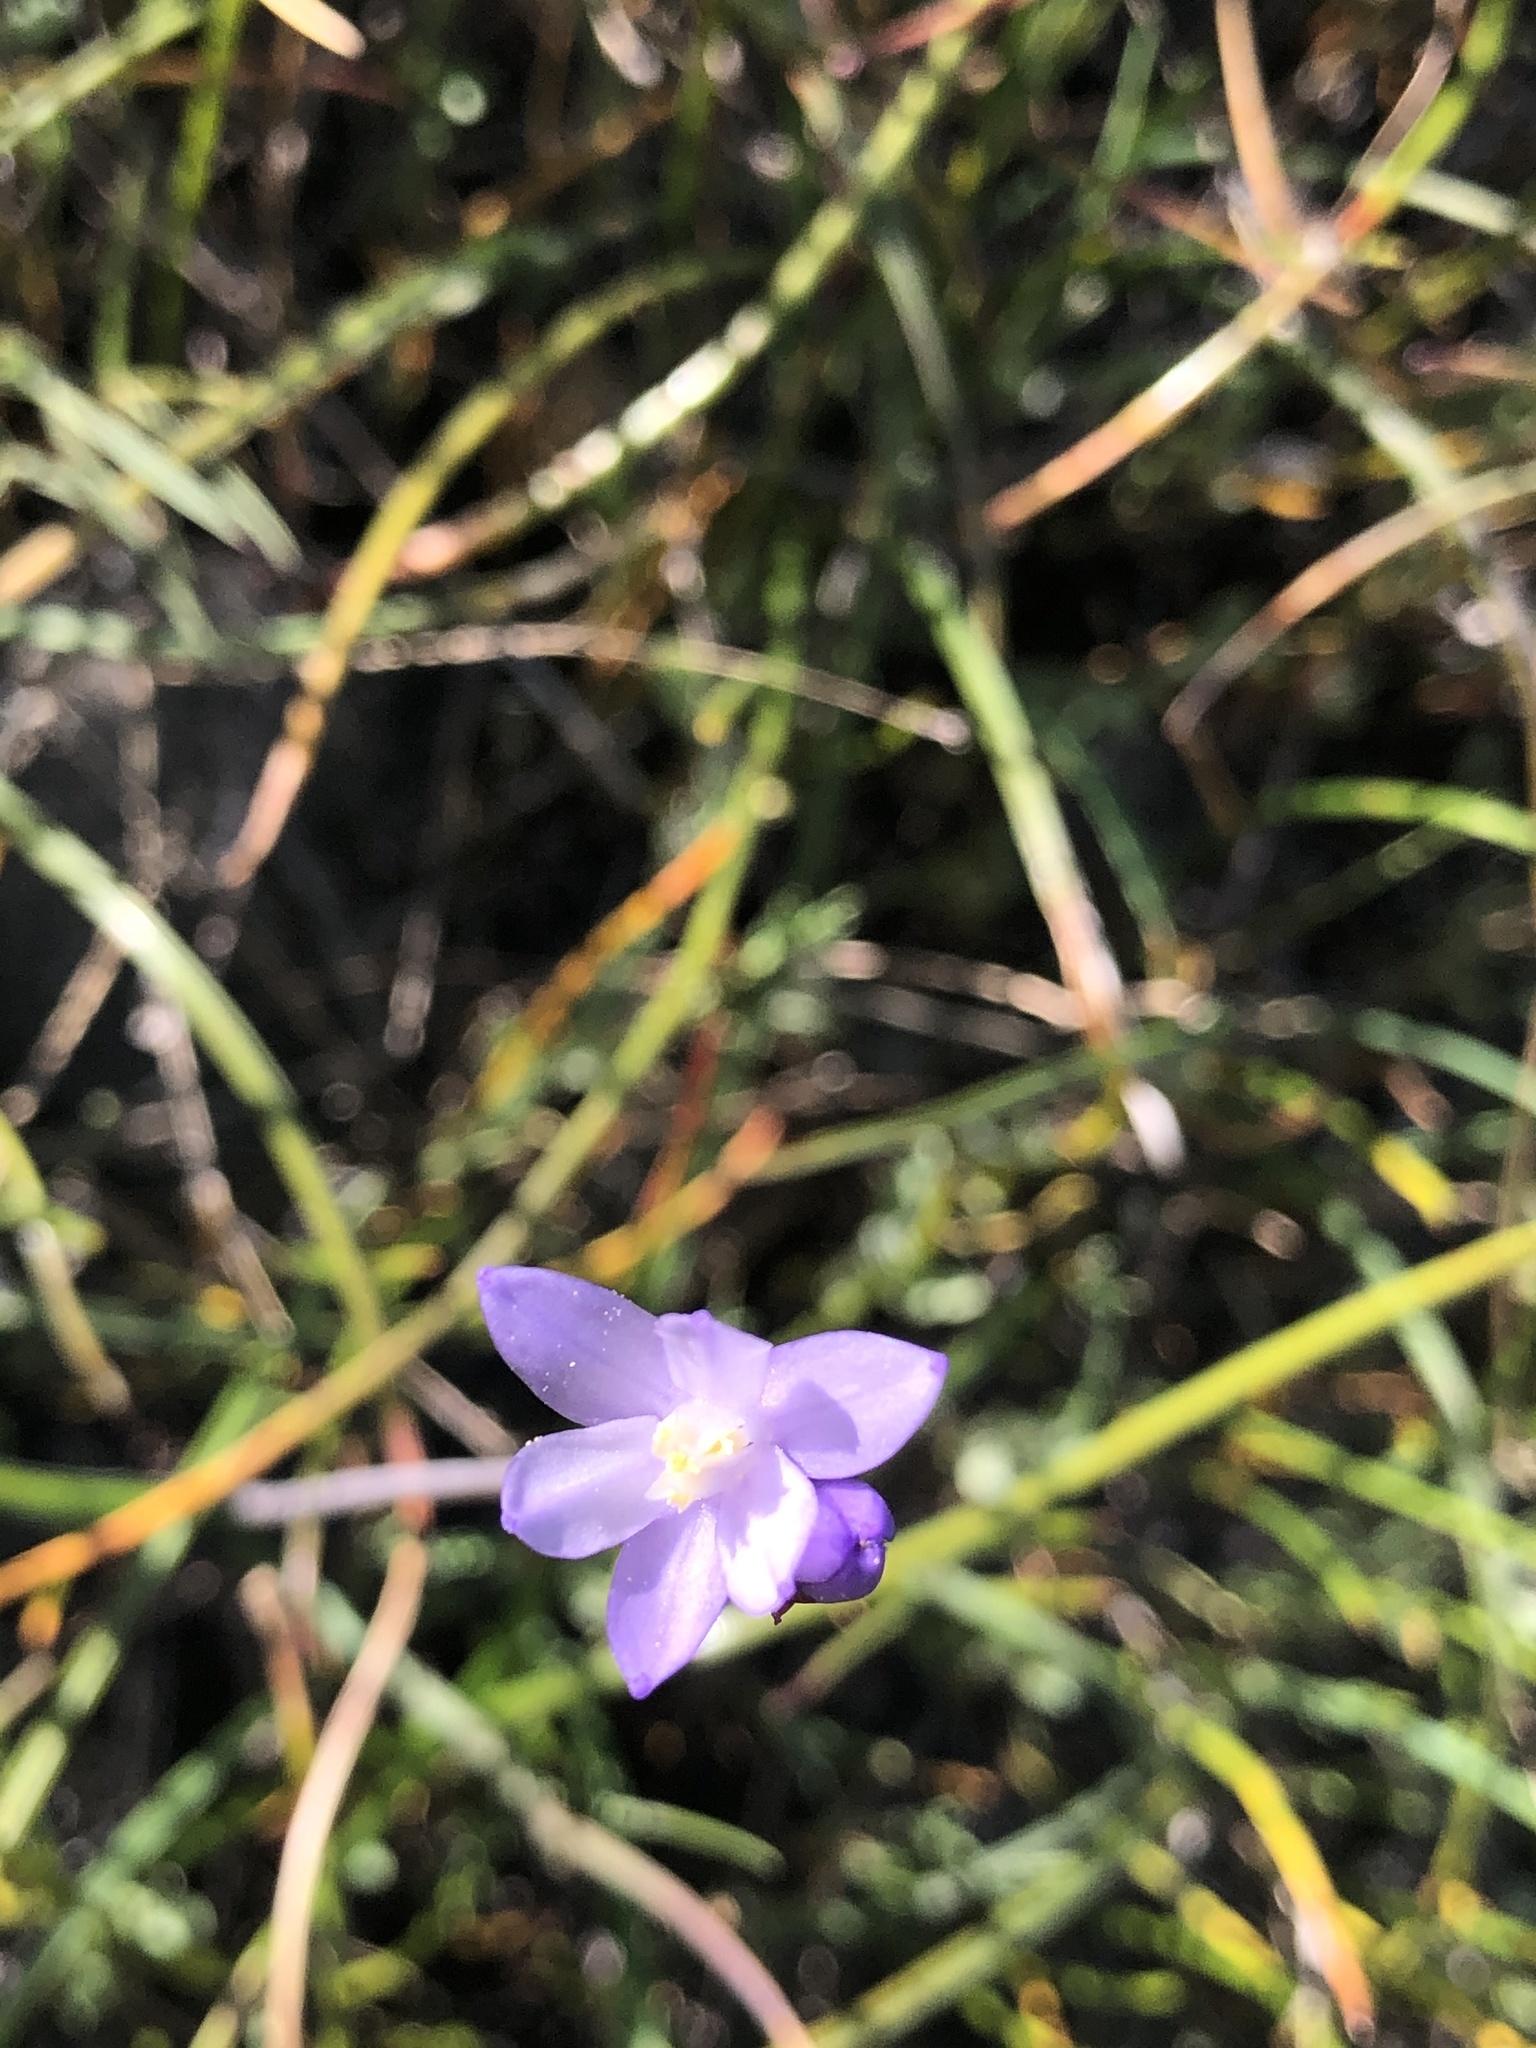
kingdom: Plantae
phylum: Tracheophyta
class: Liliopsida
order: Asparagales
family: Asparagaceae
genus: Dipterostemon
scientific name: Dipterostemon capitatus
